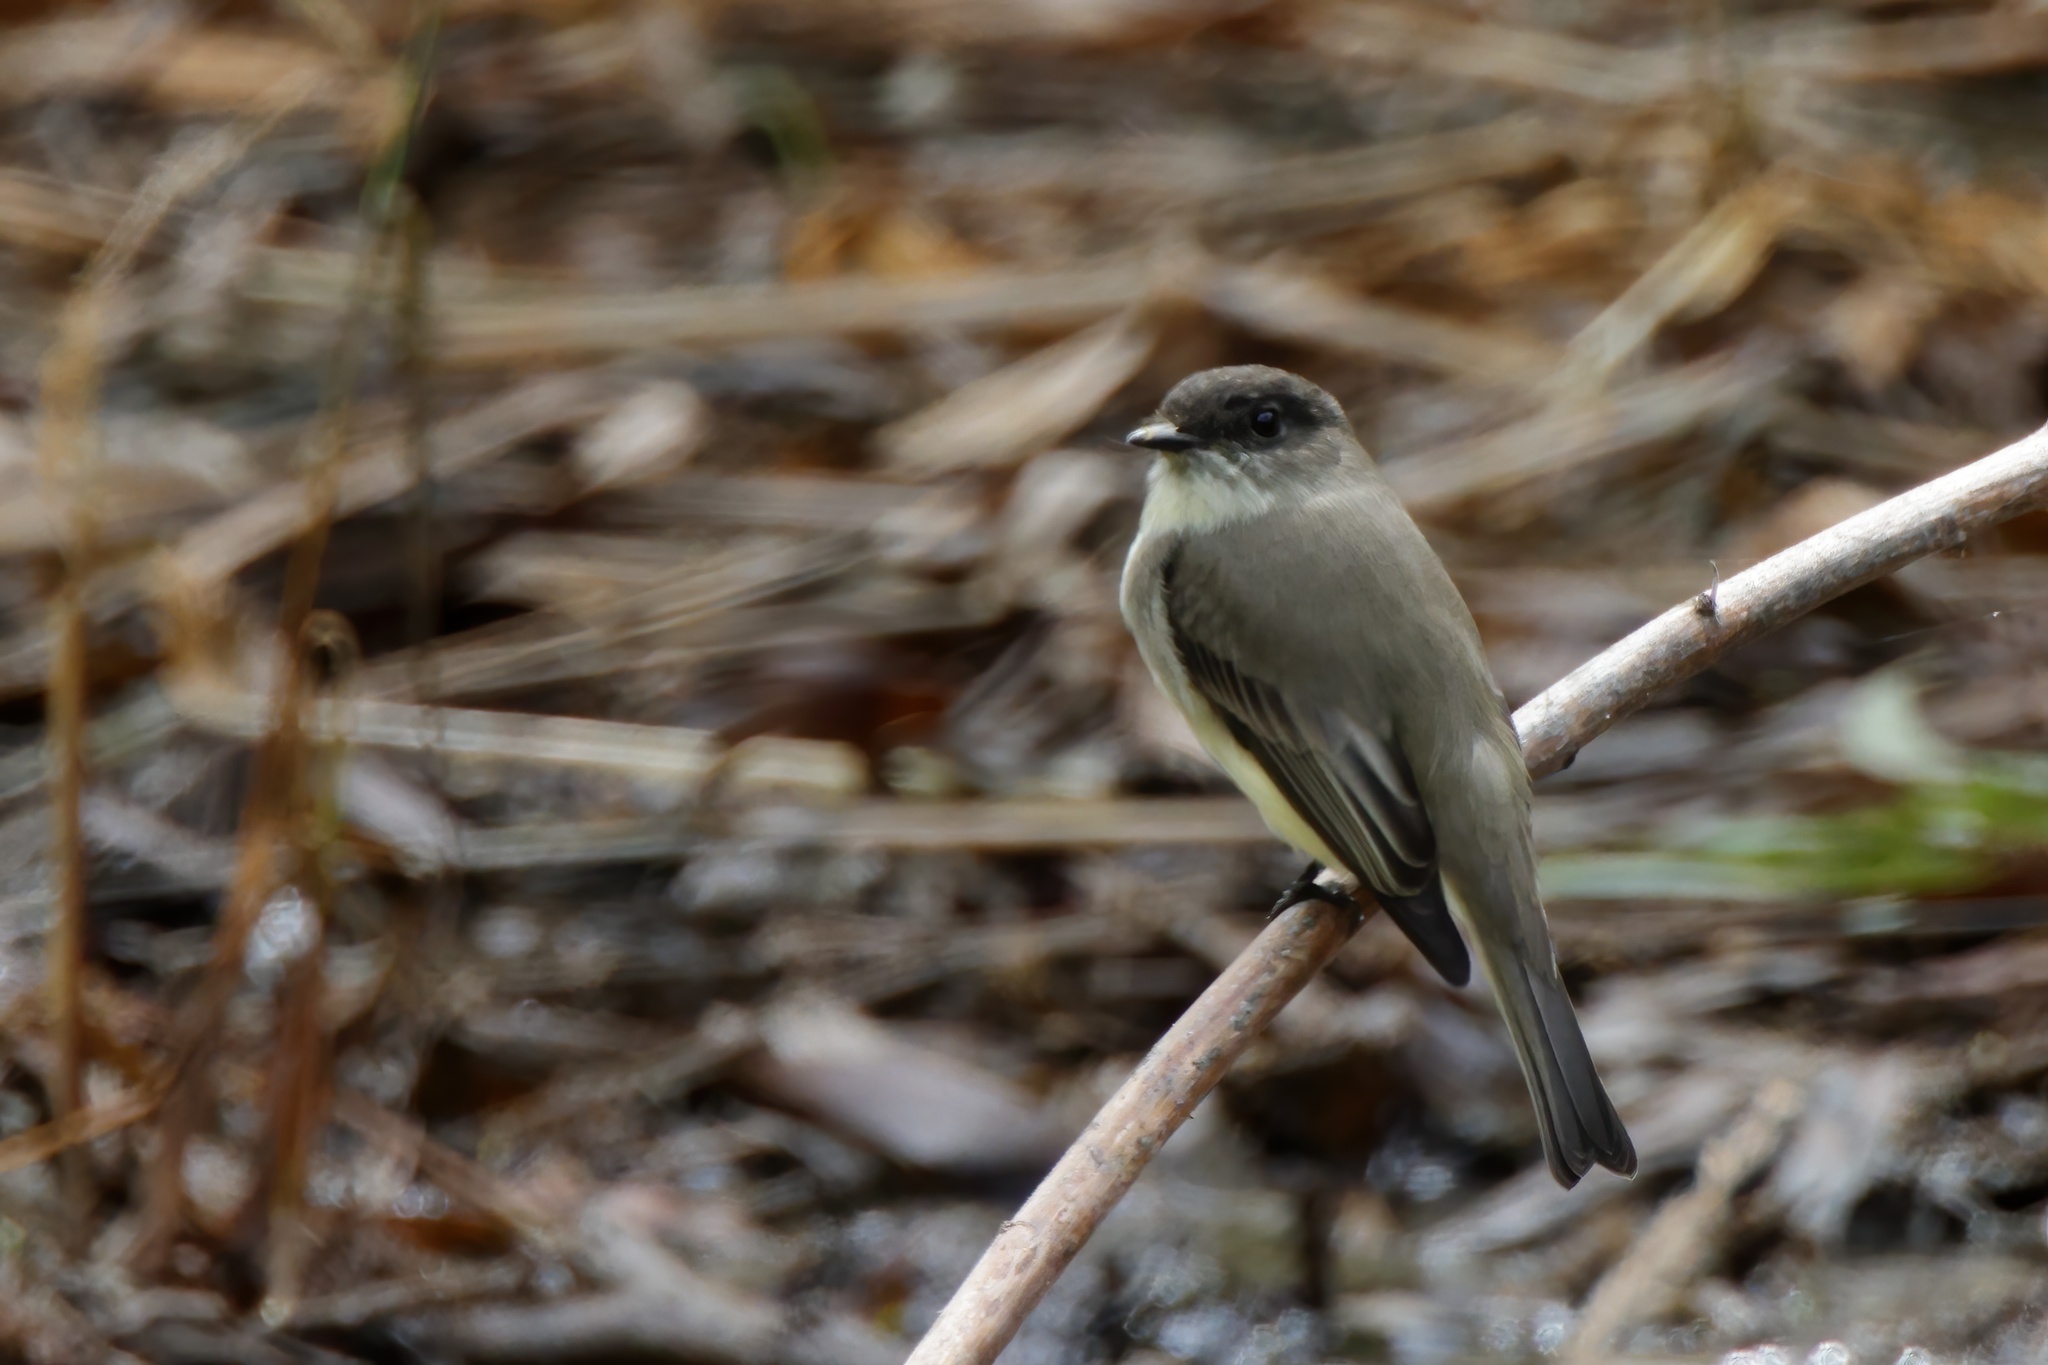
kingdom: Animalia
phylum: Chordata
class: Aves
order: Passeriformes
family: Tyrannidae
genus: Sayornis
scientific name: Sayornis phoebe
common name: Eastern phoebe
